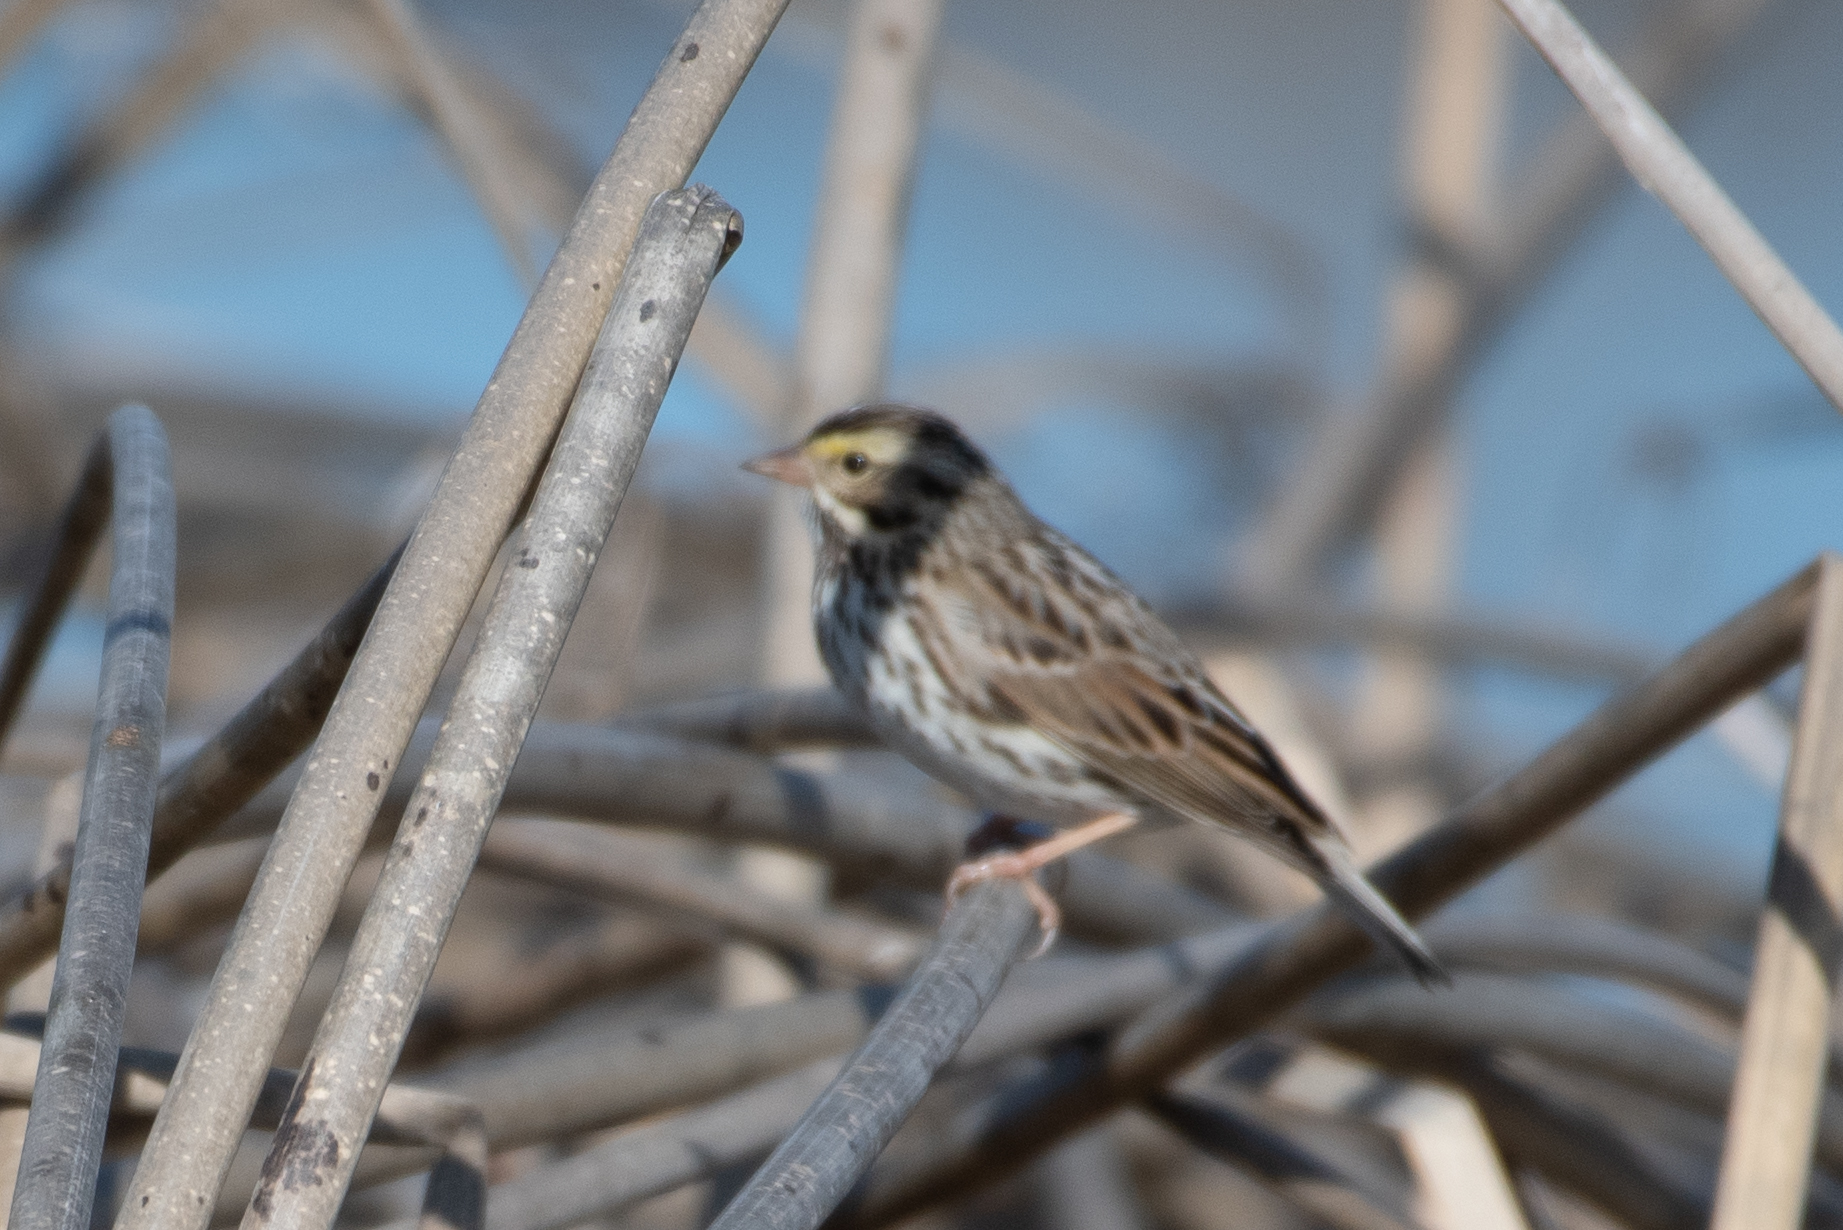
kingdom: Animalia
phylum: Chordata
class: Aves
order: Passeriformes
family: Passerellidae
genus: Passerculus
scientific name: Passerculus sandwichensis
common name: Savannah sparrow
